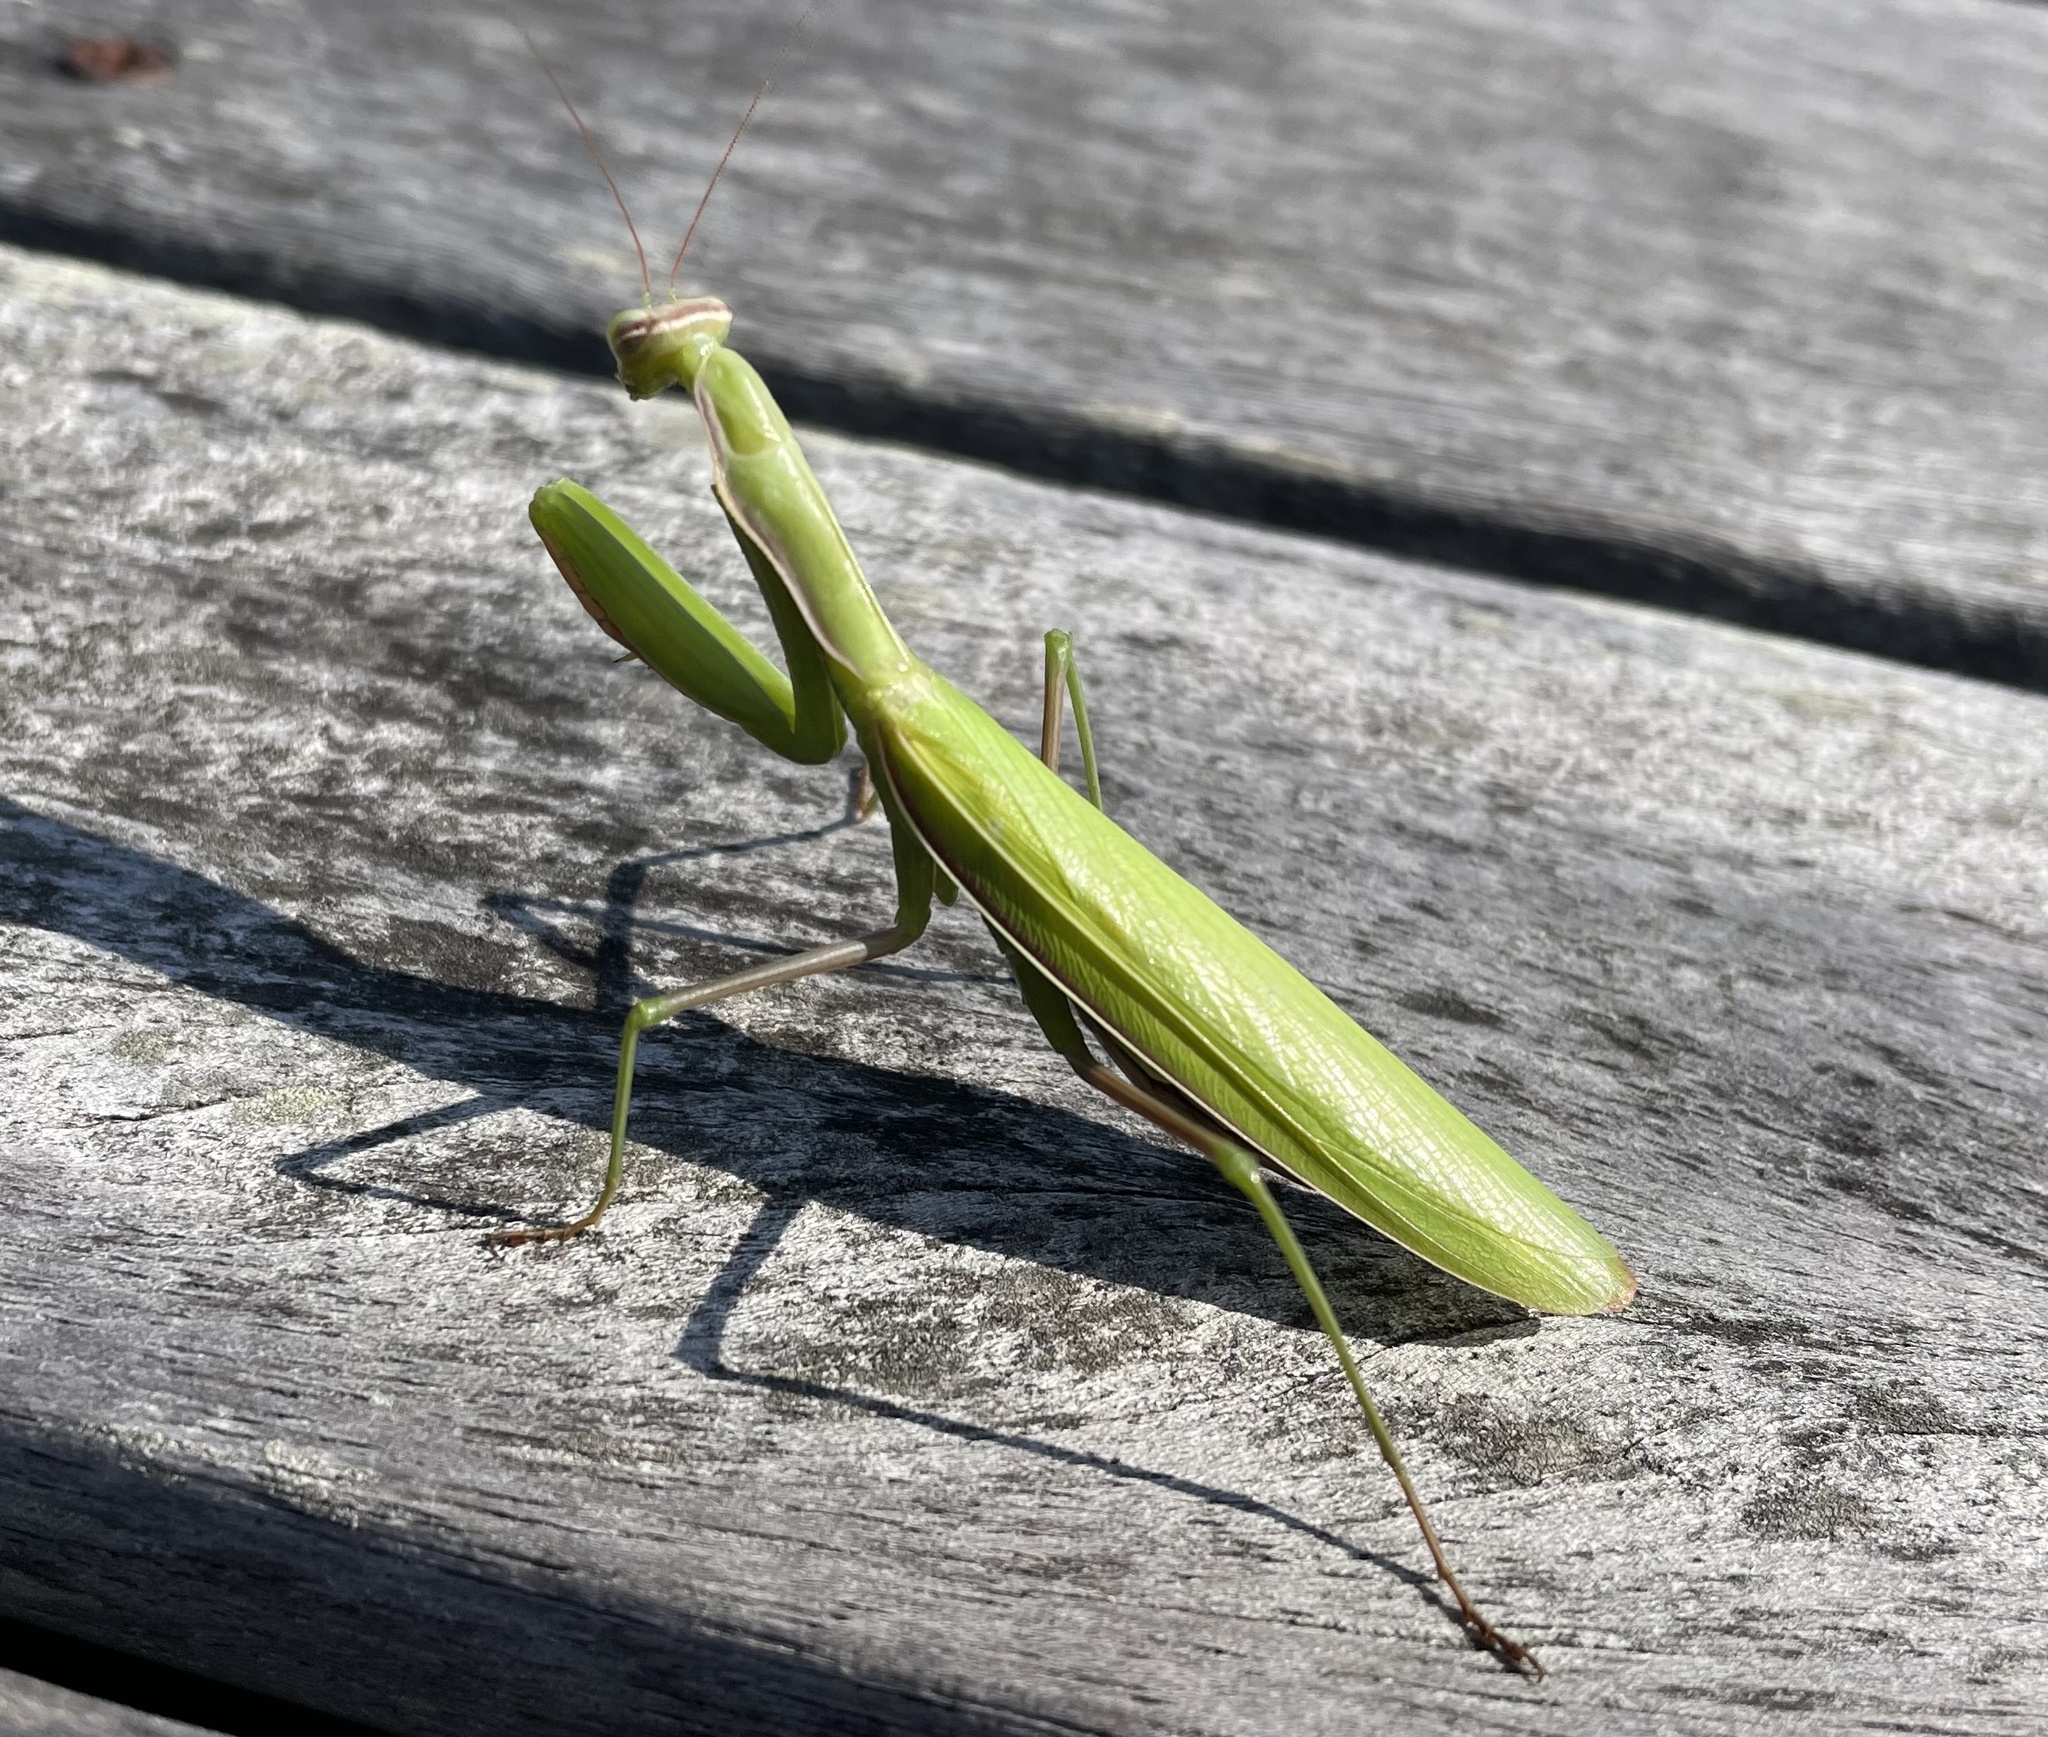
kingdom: Animalia
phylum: Arthropoda
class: Insecta
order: Mantodea
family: Mantidae
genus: Mantis
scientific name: Mantis religiosa
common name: Praying mantis
